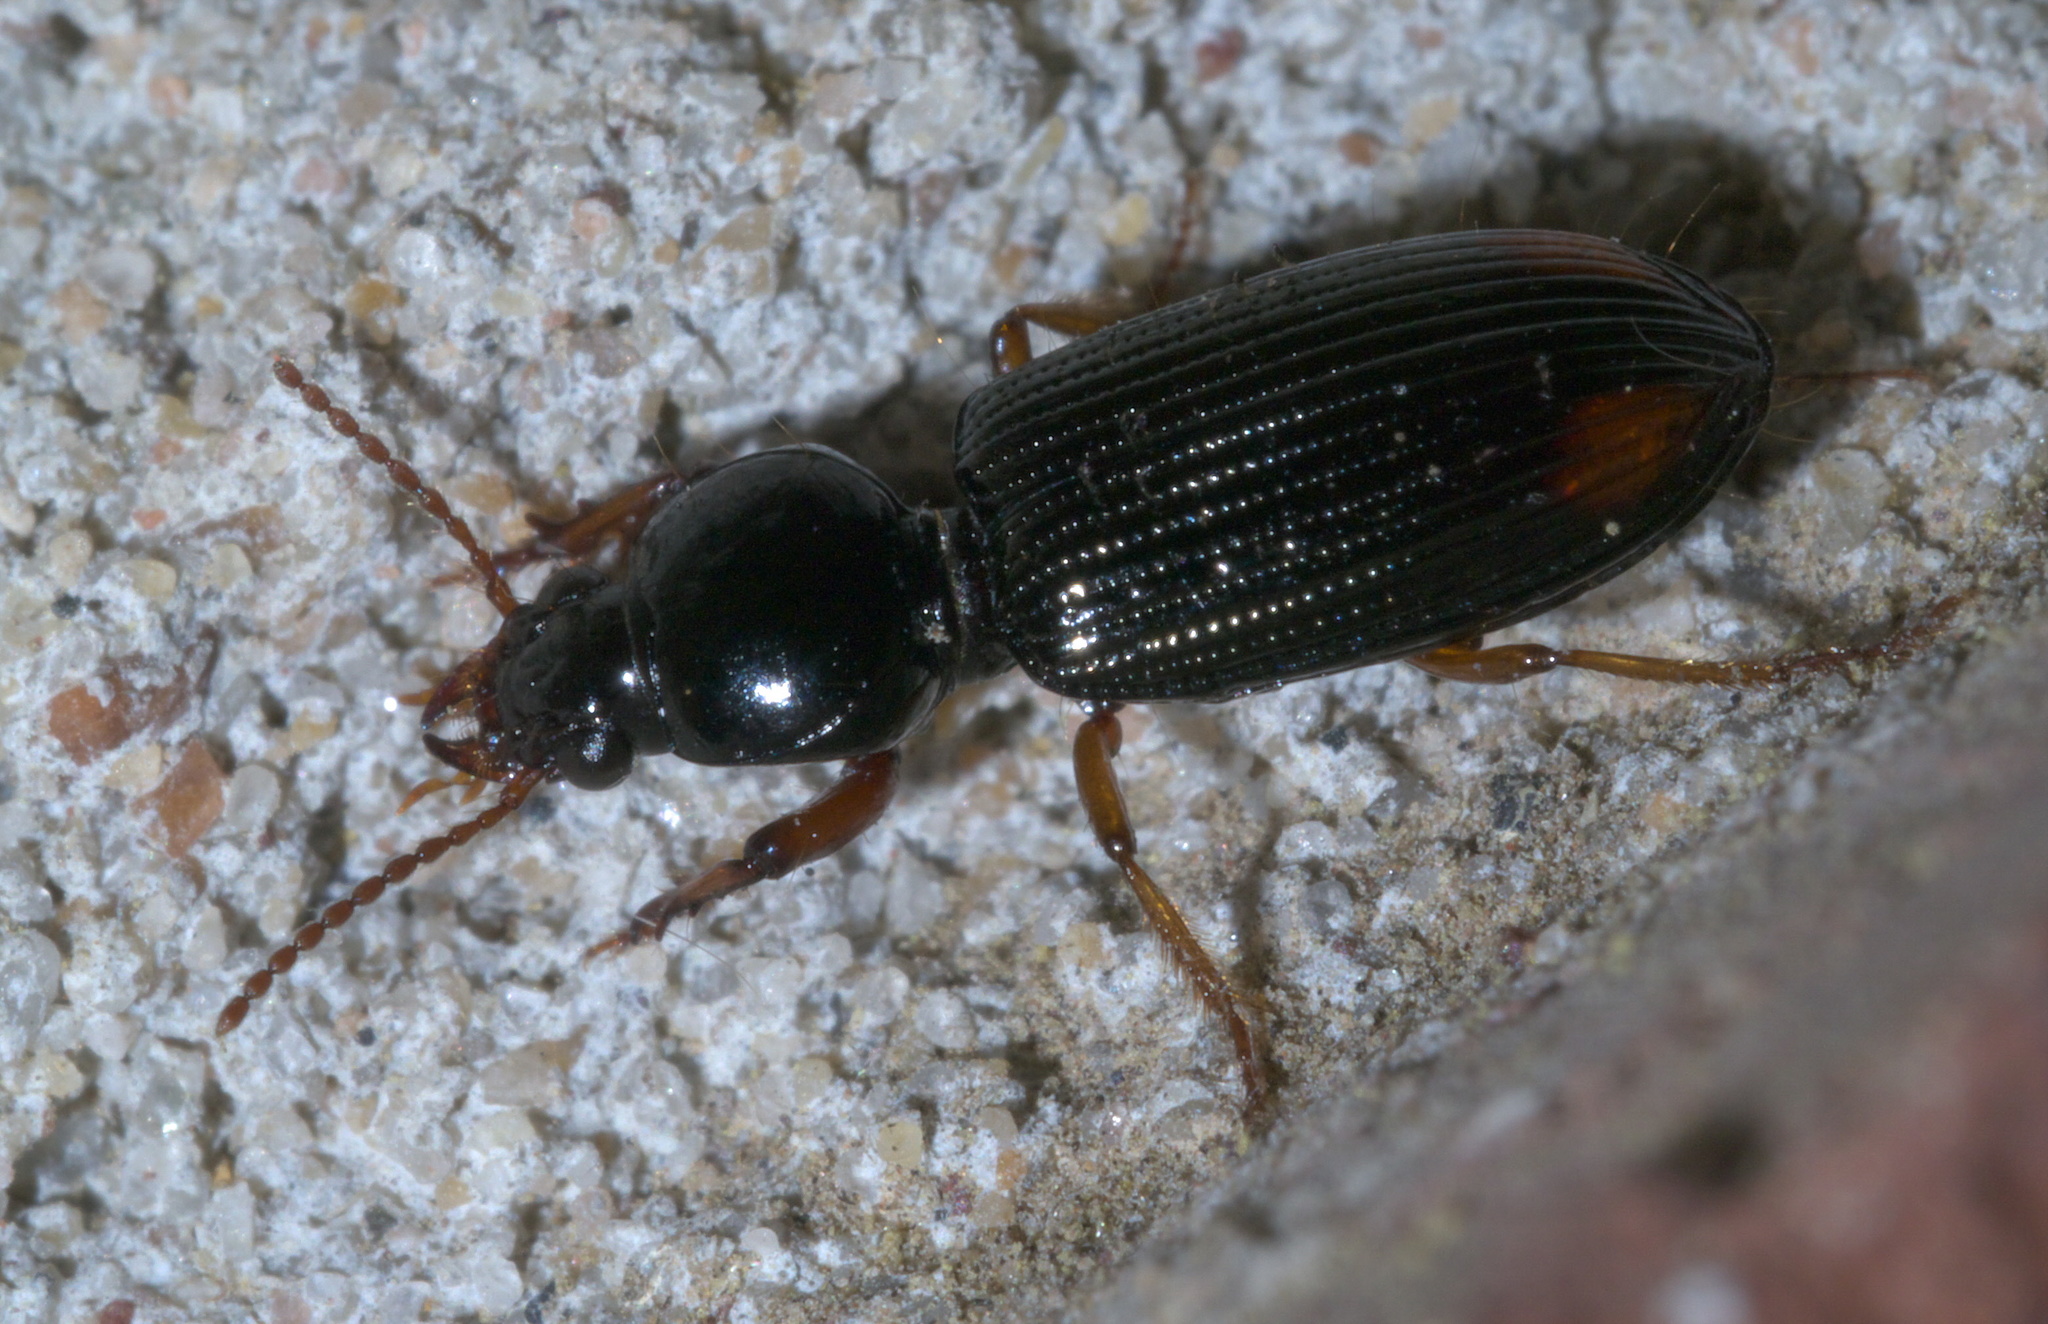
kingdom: Animalia
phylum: Arthropoda
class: Insecta
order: Coleoptera
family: Carabidae
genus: Aspidoglossa
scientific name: Aspidoglossa subangulata
